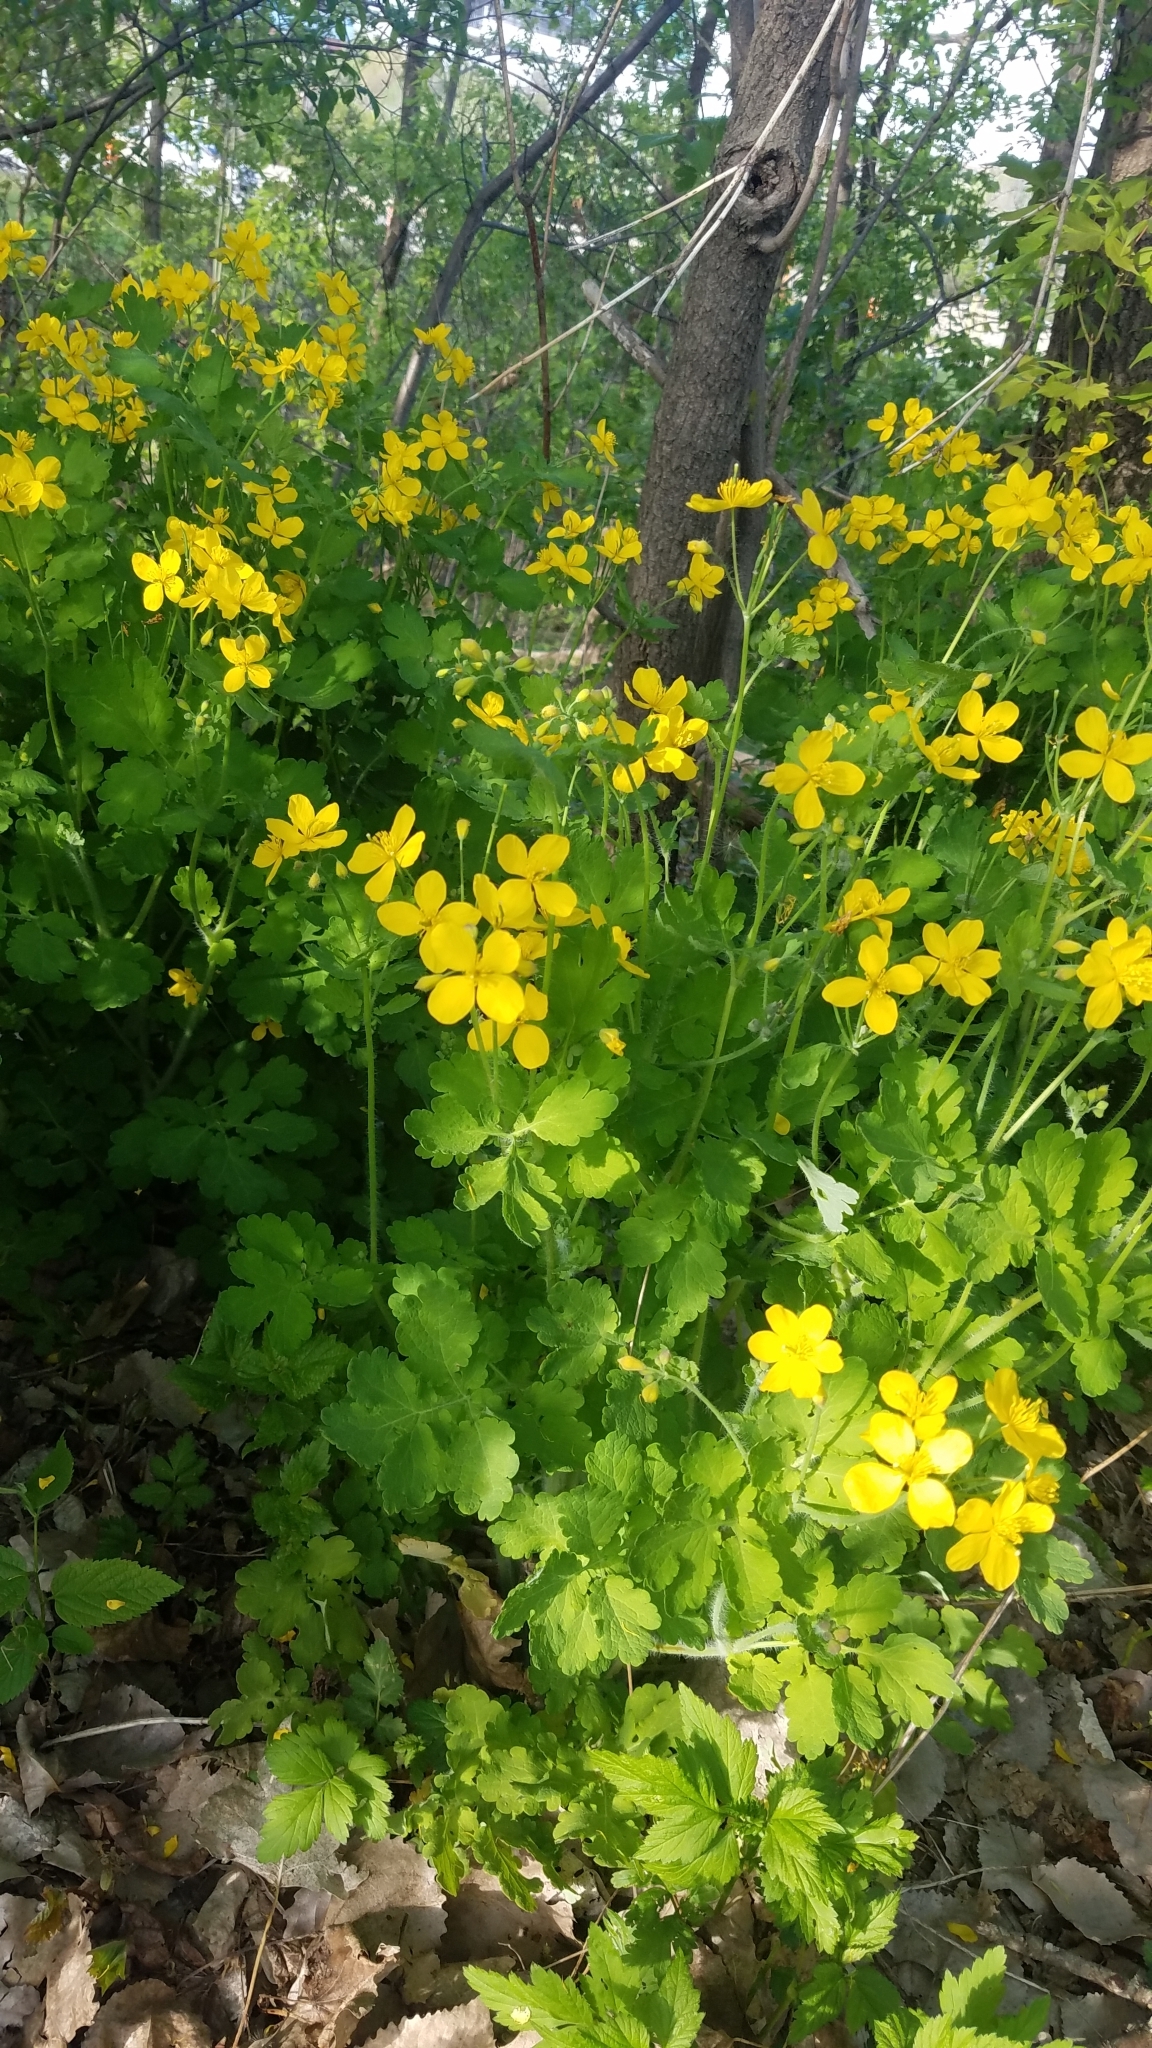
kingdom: Plantae
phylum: Tracheophyta
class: Magnoliopsida
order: Ranunculales
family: Papaveraceae
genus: Chelidonium
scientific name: Chelidonium majus
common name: Greater celandine
